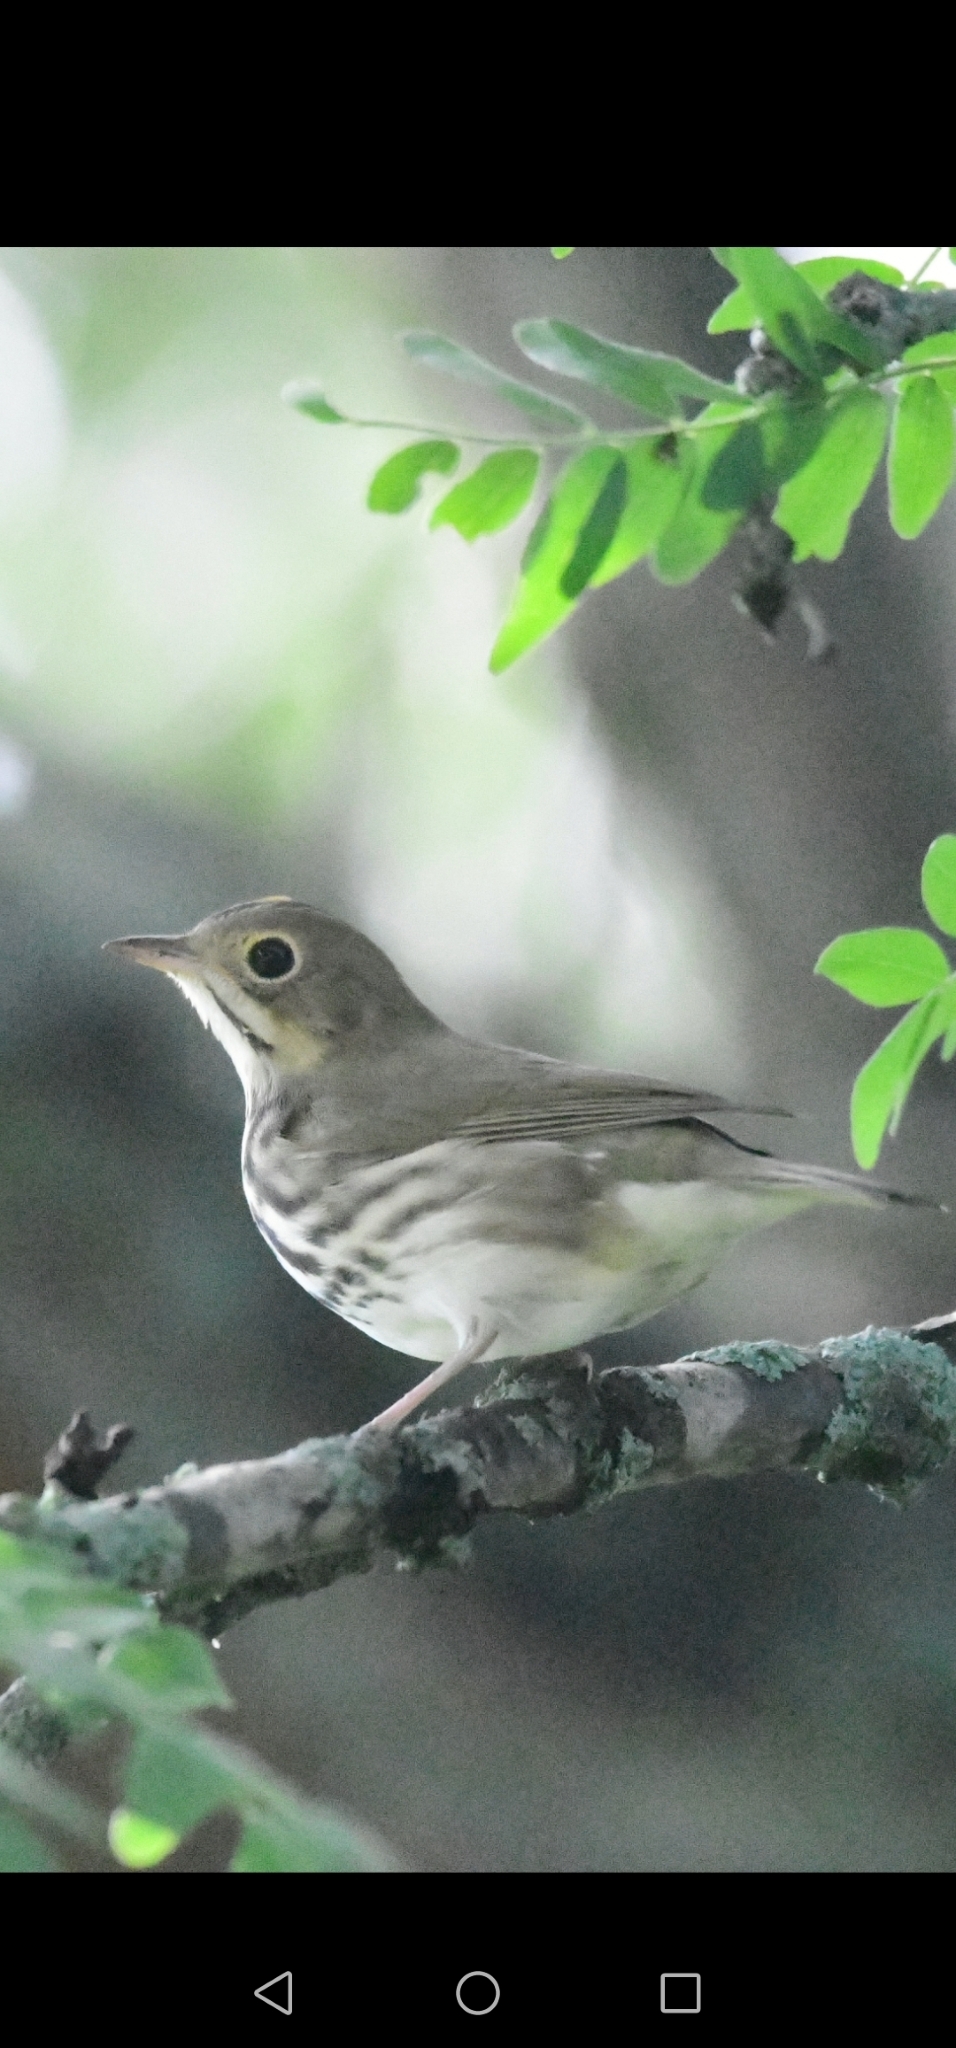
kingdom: Animalia
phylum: Chordata
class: Aves
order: Passeriformes
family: Parulidae
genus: Seiurus
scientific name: Seiurus aurocapilla
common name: Ovenbird
